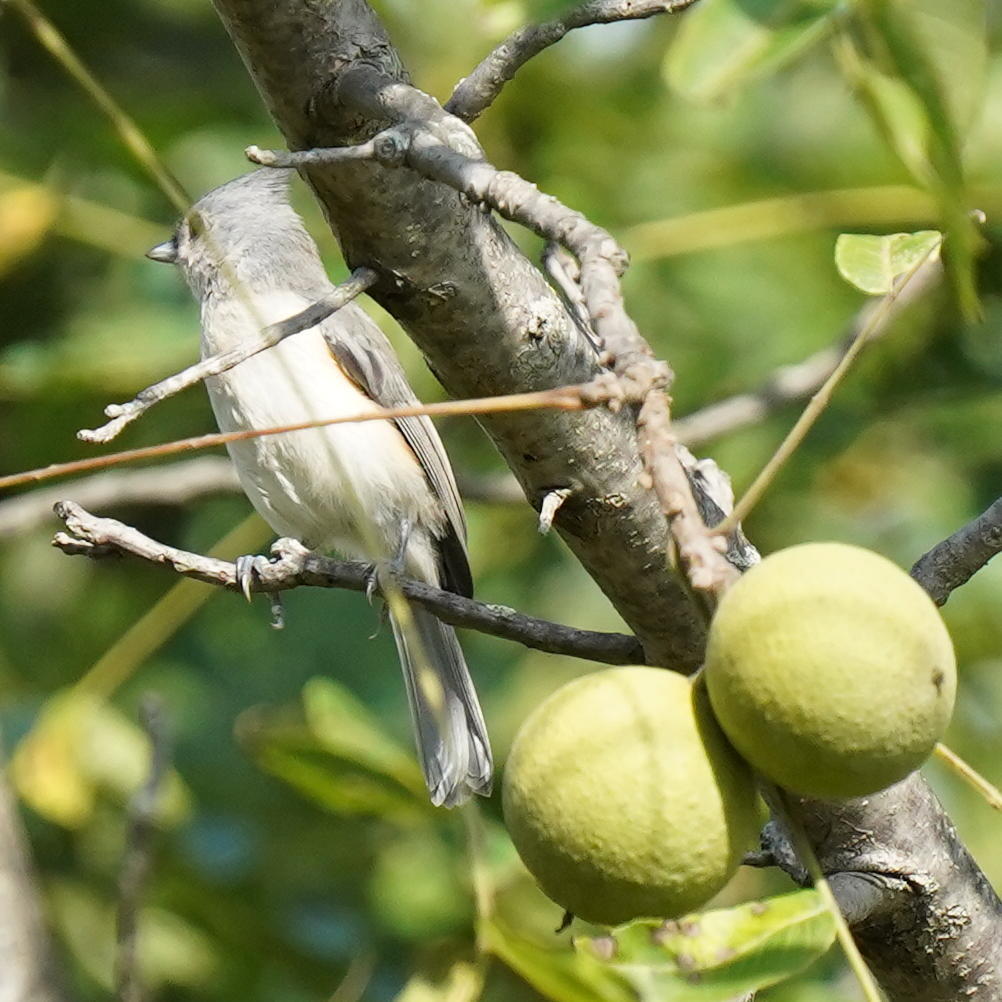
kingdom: Animalia
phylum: Chordata
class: Aves
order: Passeriformes
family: Paridae
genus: Baeolophus
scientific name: Baeolophus bicolor
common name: Tufted titmouse
